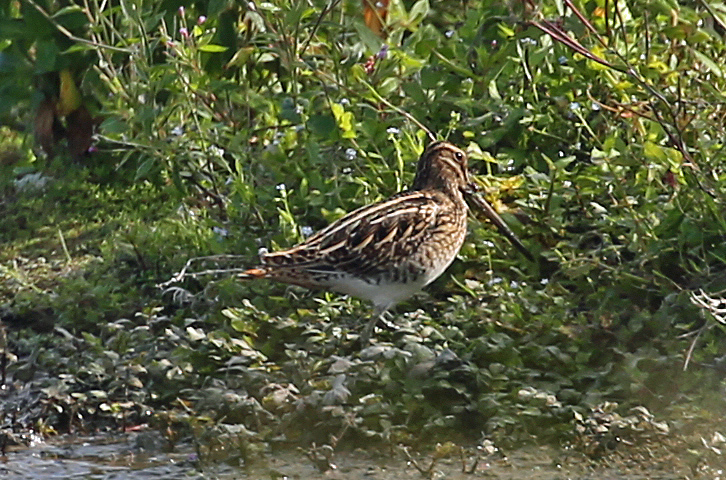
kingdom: Animalia
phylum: Chordata
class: Aves
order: Charadriiformes
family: Scolopacidae
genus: Gallinago
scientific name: Gallinago gallinago
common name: Common snipe
